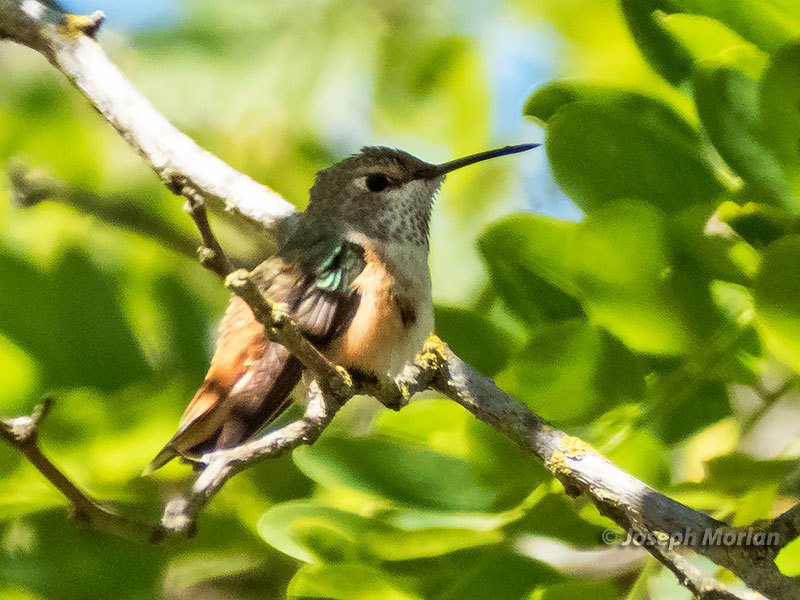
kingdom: Animalia
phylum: Chordata
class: Aves
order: Apodiformes
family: Trochilidae
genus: Selasphorus
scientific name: Selasphorus sasin
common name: Allen's hummingbird
